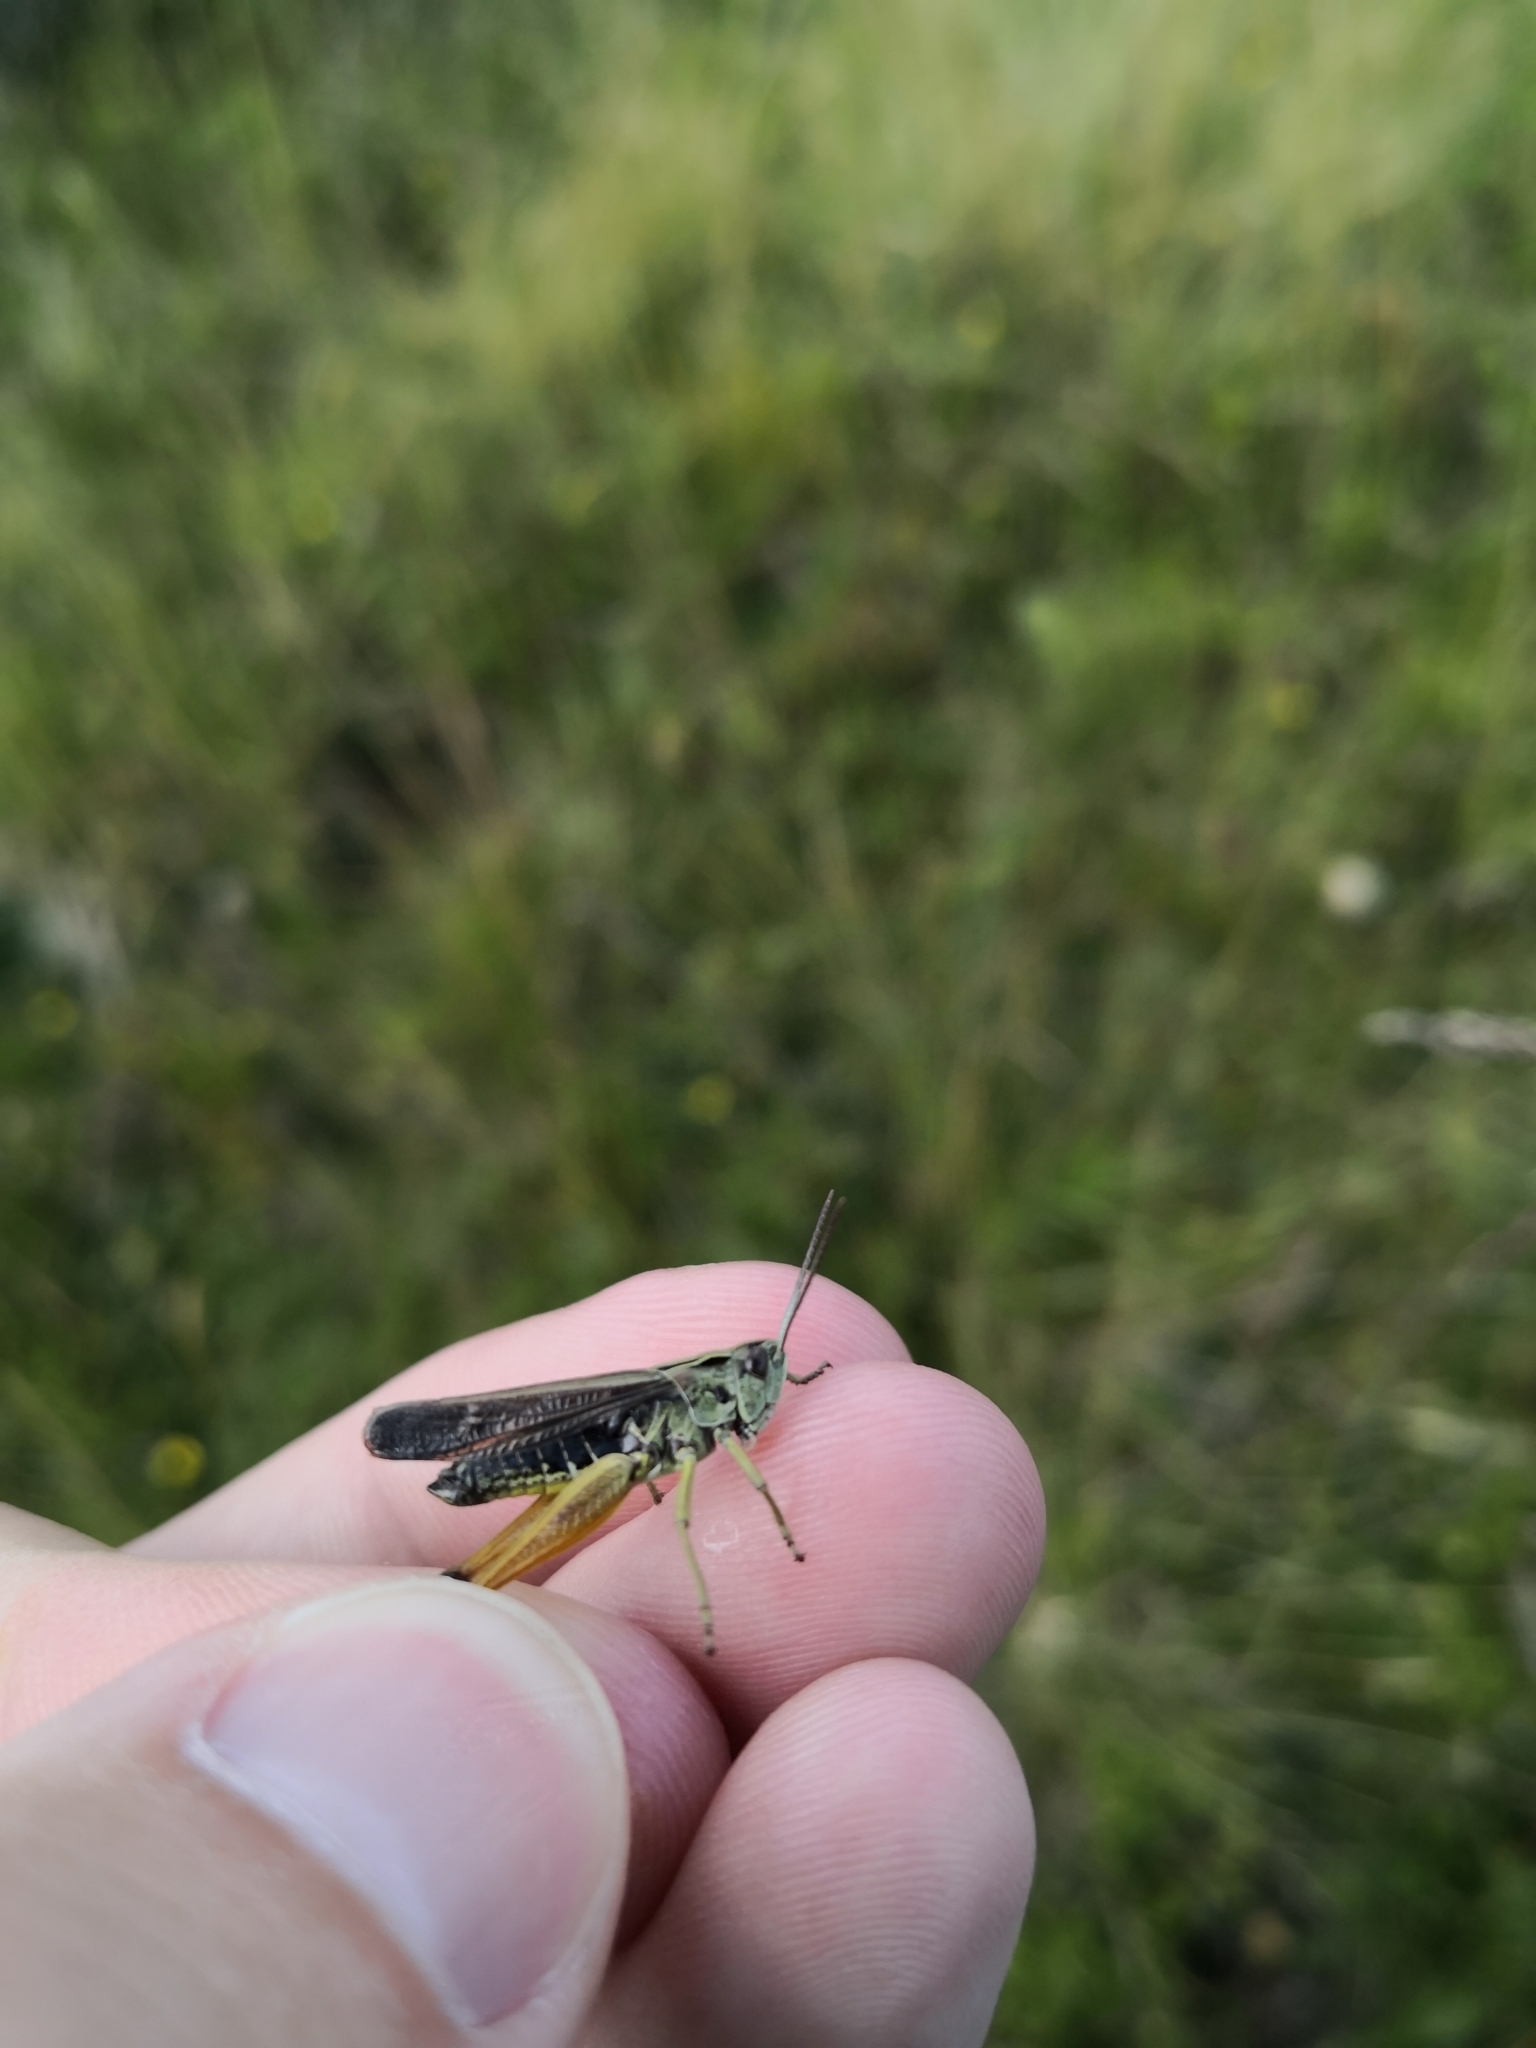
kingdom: Animalia
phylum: Arthropoda
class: Insecta
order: Orthoptera
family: Acrididae
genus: Omocestus
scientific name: Omocestus viridulus
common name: Common green grasshopper
